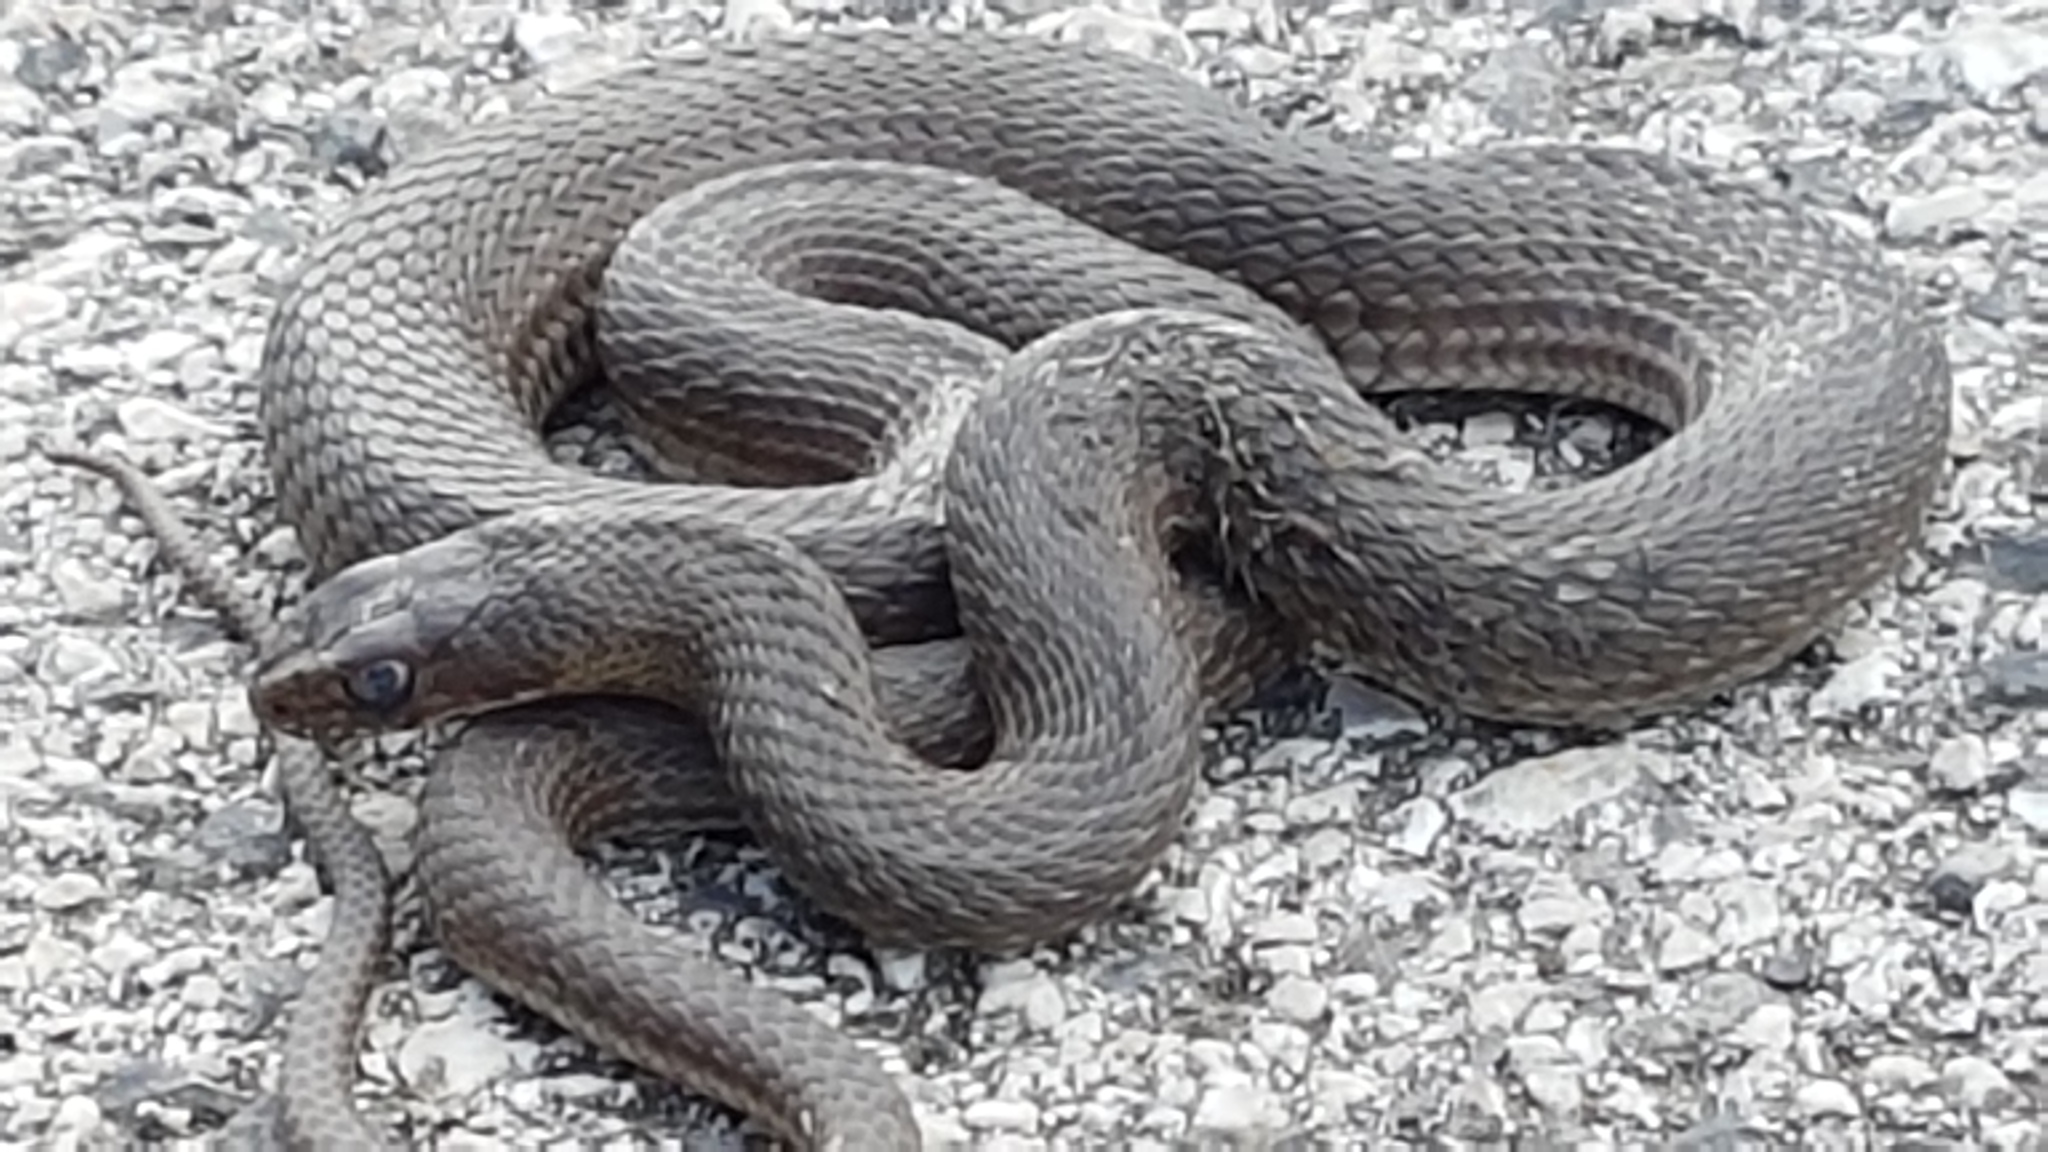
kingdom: Animalia
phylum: Chordata
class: Squamata
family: Psammophiidae
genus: Malpolon
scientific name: Malpolon insignitus
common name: Eastern montpellier snake
